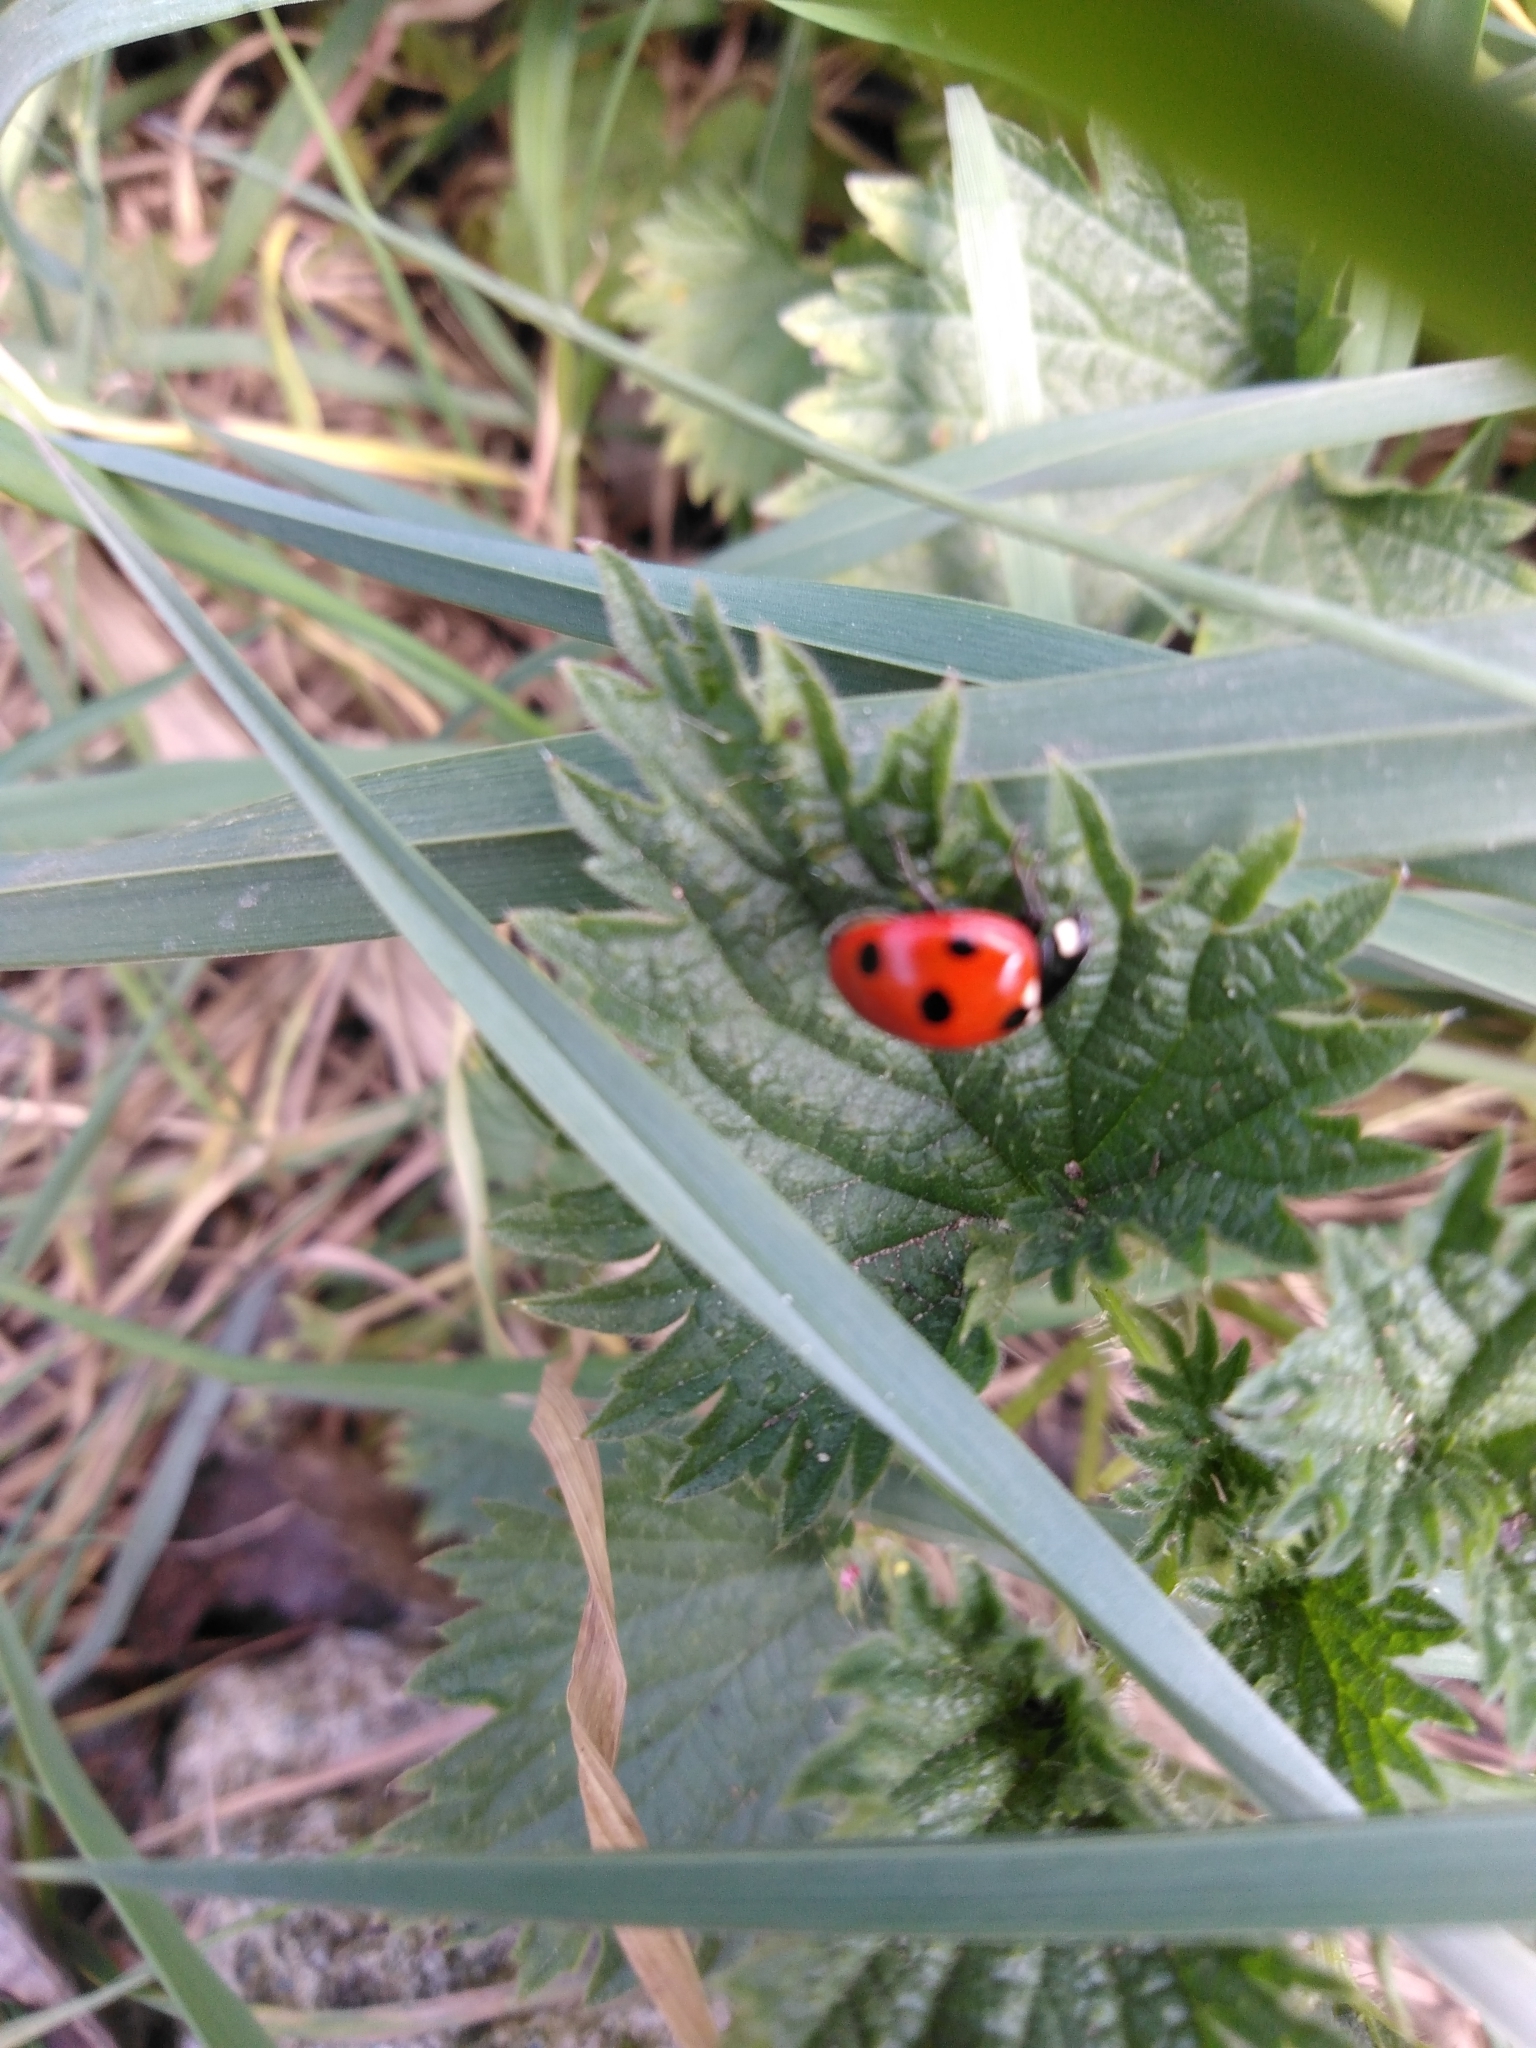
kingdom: Animalia
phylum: Arthropoda
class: Insecta
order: Coleoptera
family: Coccinellidae
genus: Coccinella
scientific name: Coccinella septempunctata
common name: Sevenspotted lady beetle
